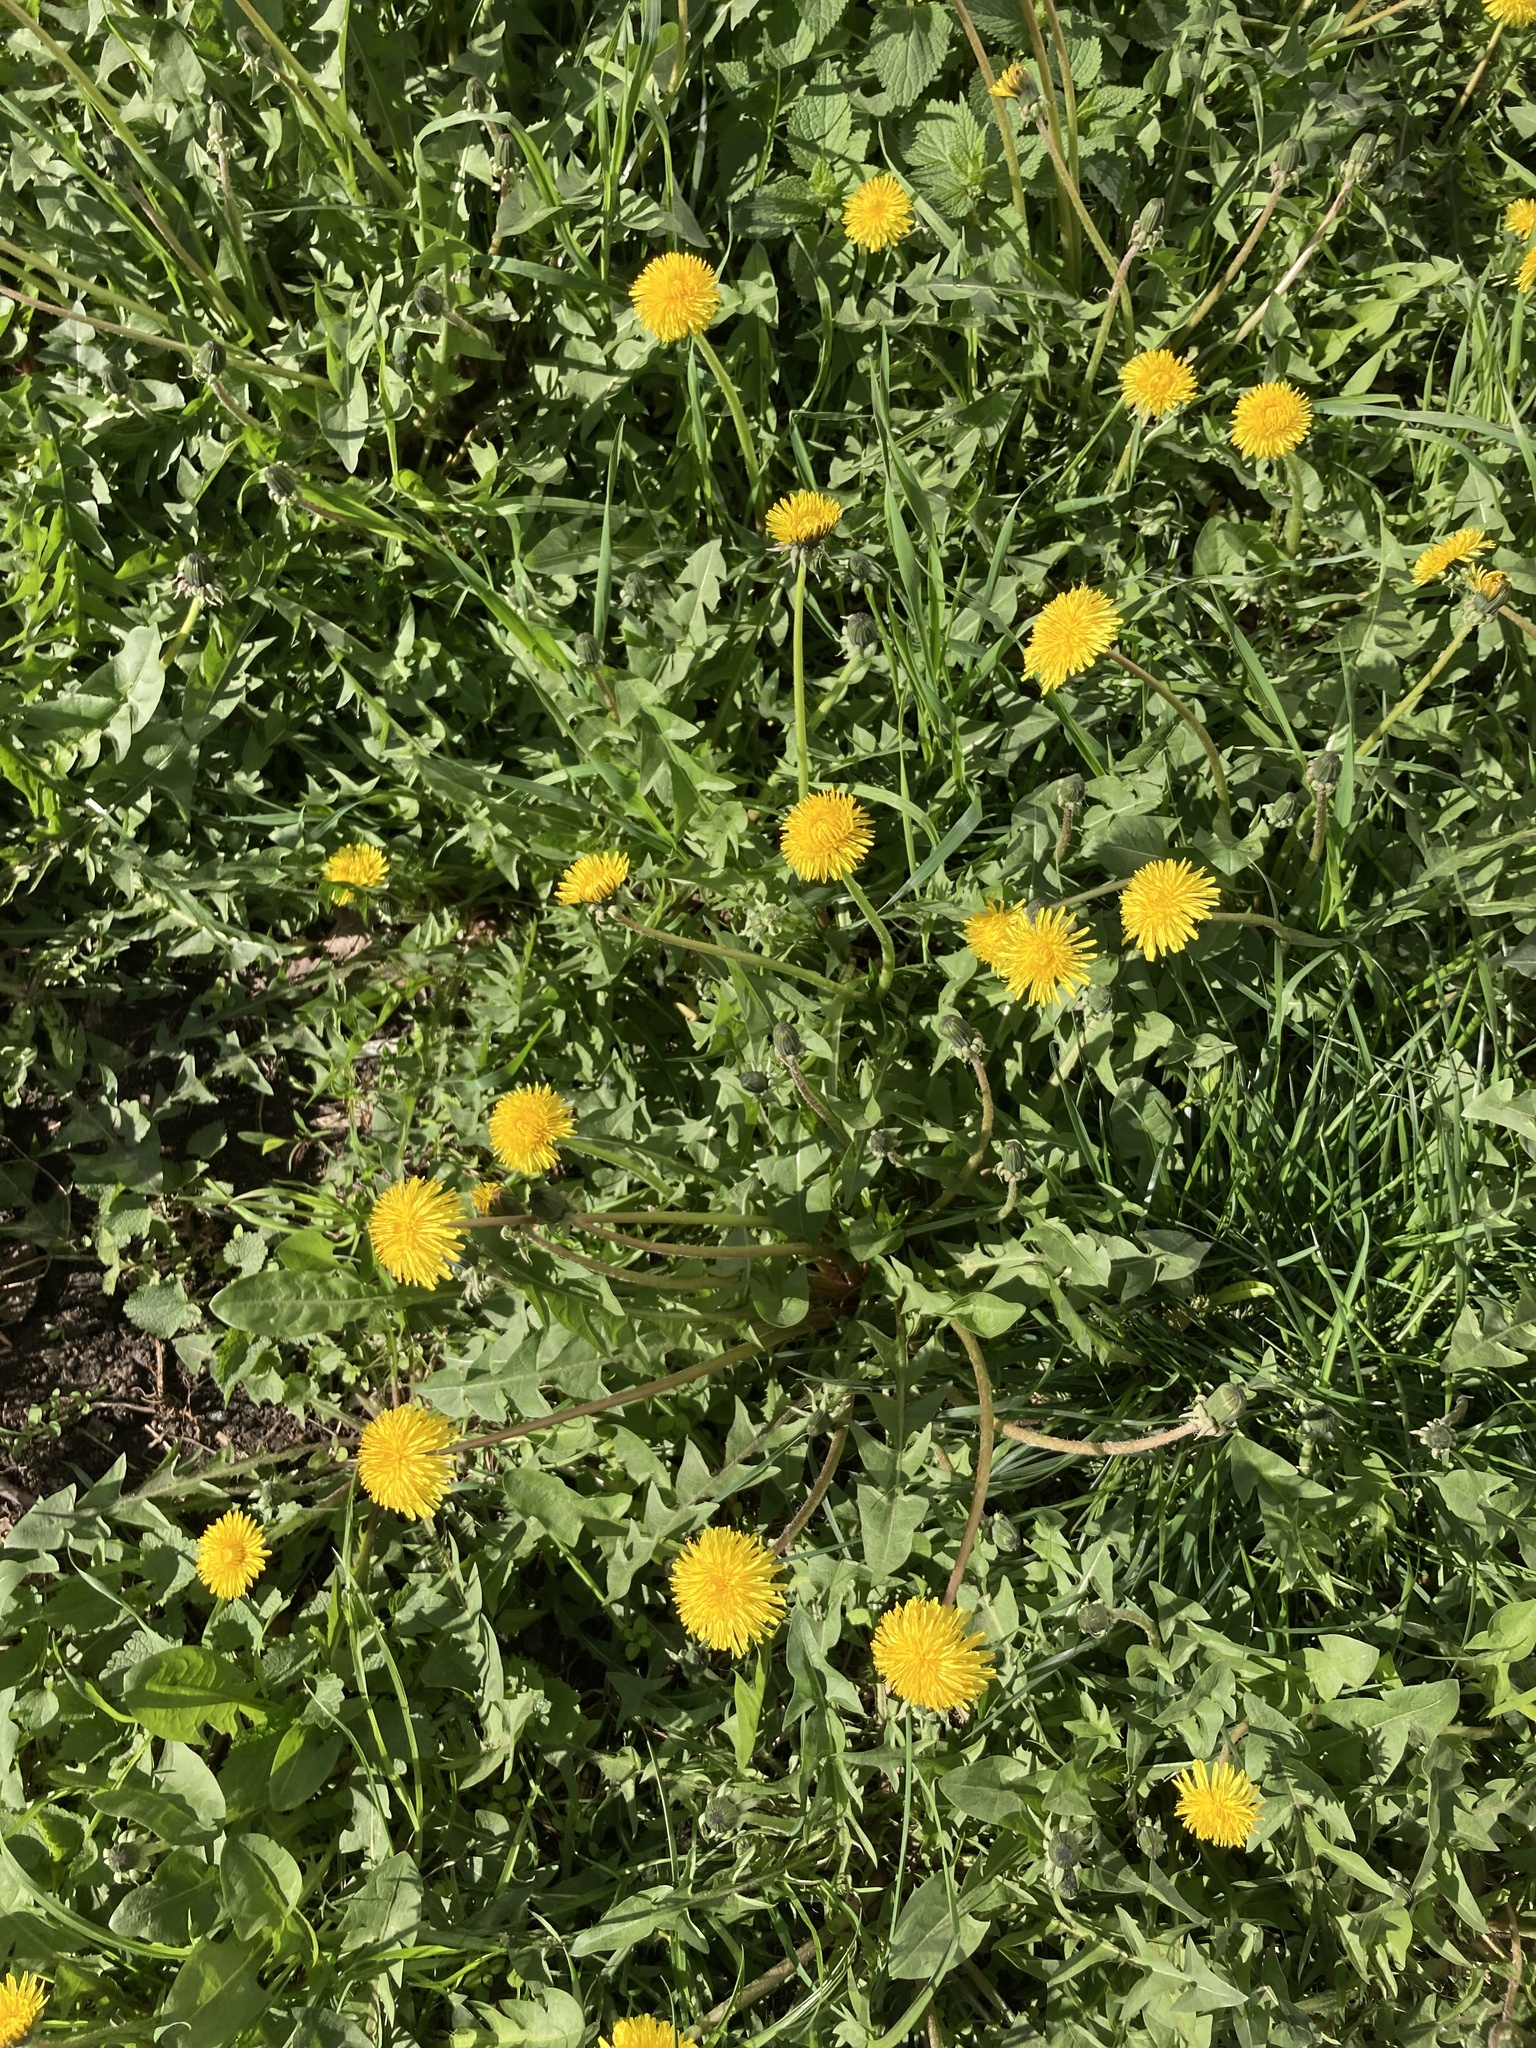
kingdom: Plantae
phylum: Tracheophyta
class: Magnoliopsida
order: Asterales
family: Asteraceae
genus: Taraxacum
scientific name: Taraxacum officinale
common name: Common dandelion
